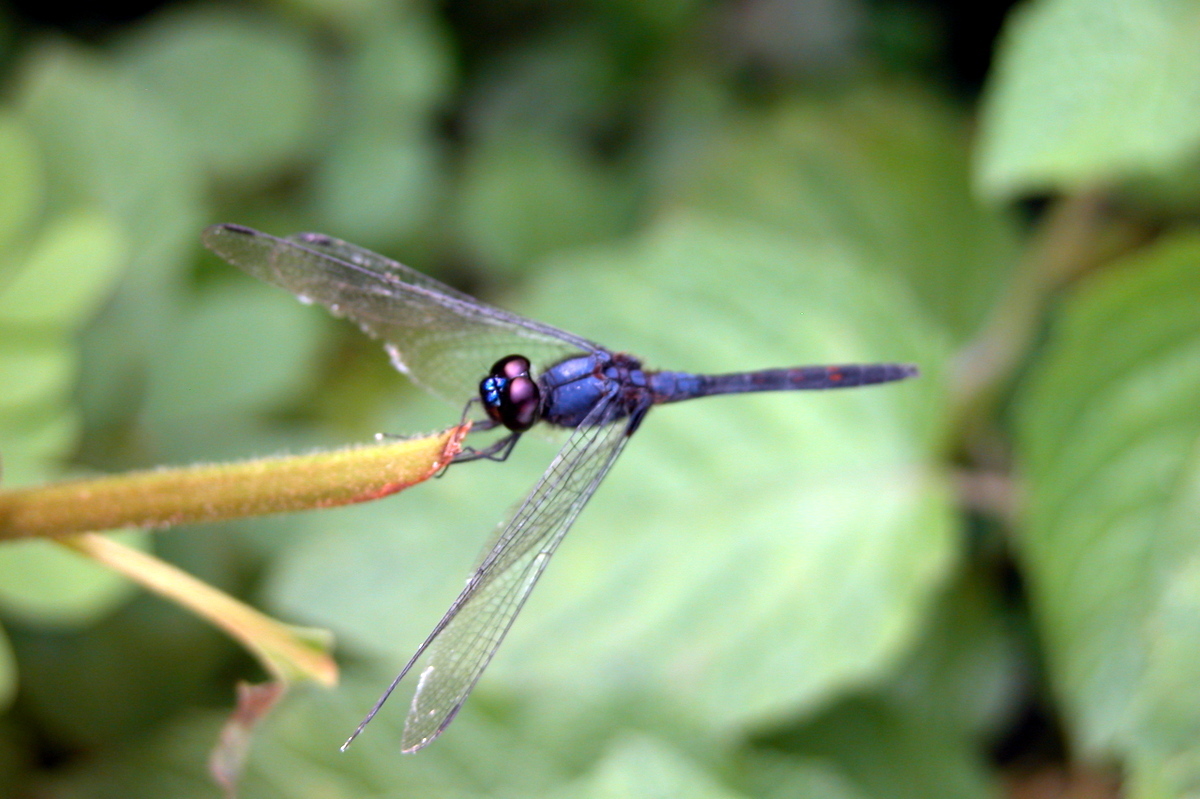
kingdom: Animalia
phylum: Arthropoda
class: Insecta
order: Odonata
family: Libellulidae
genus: Trithemis
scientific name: Trithemis festiva
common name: Indigo dropwing
